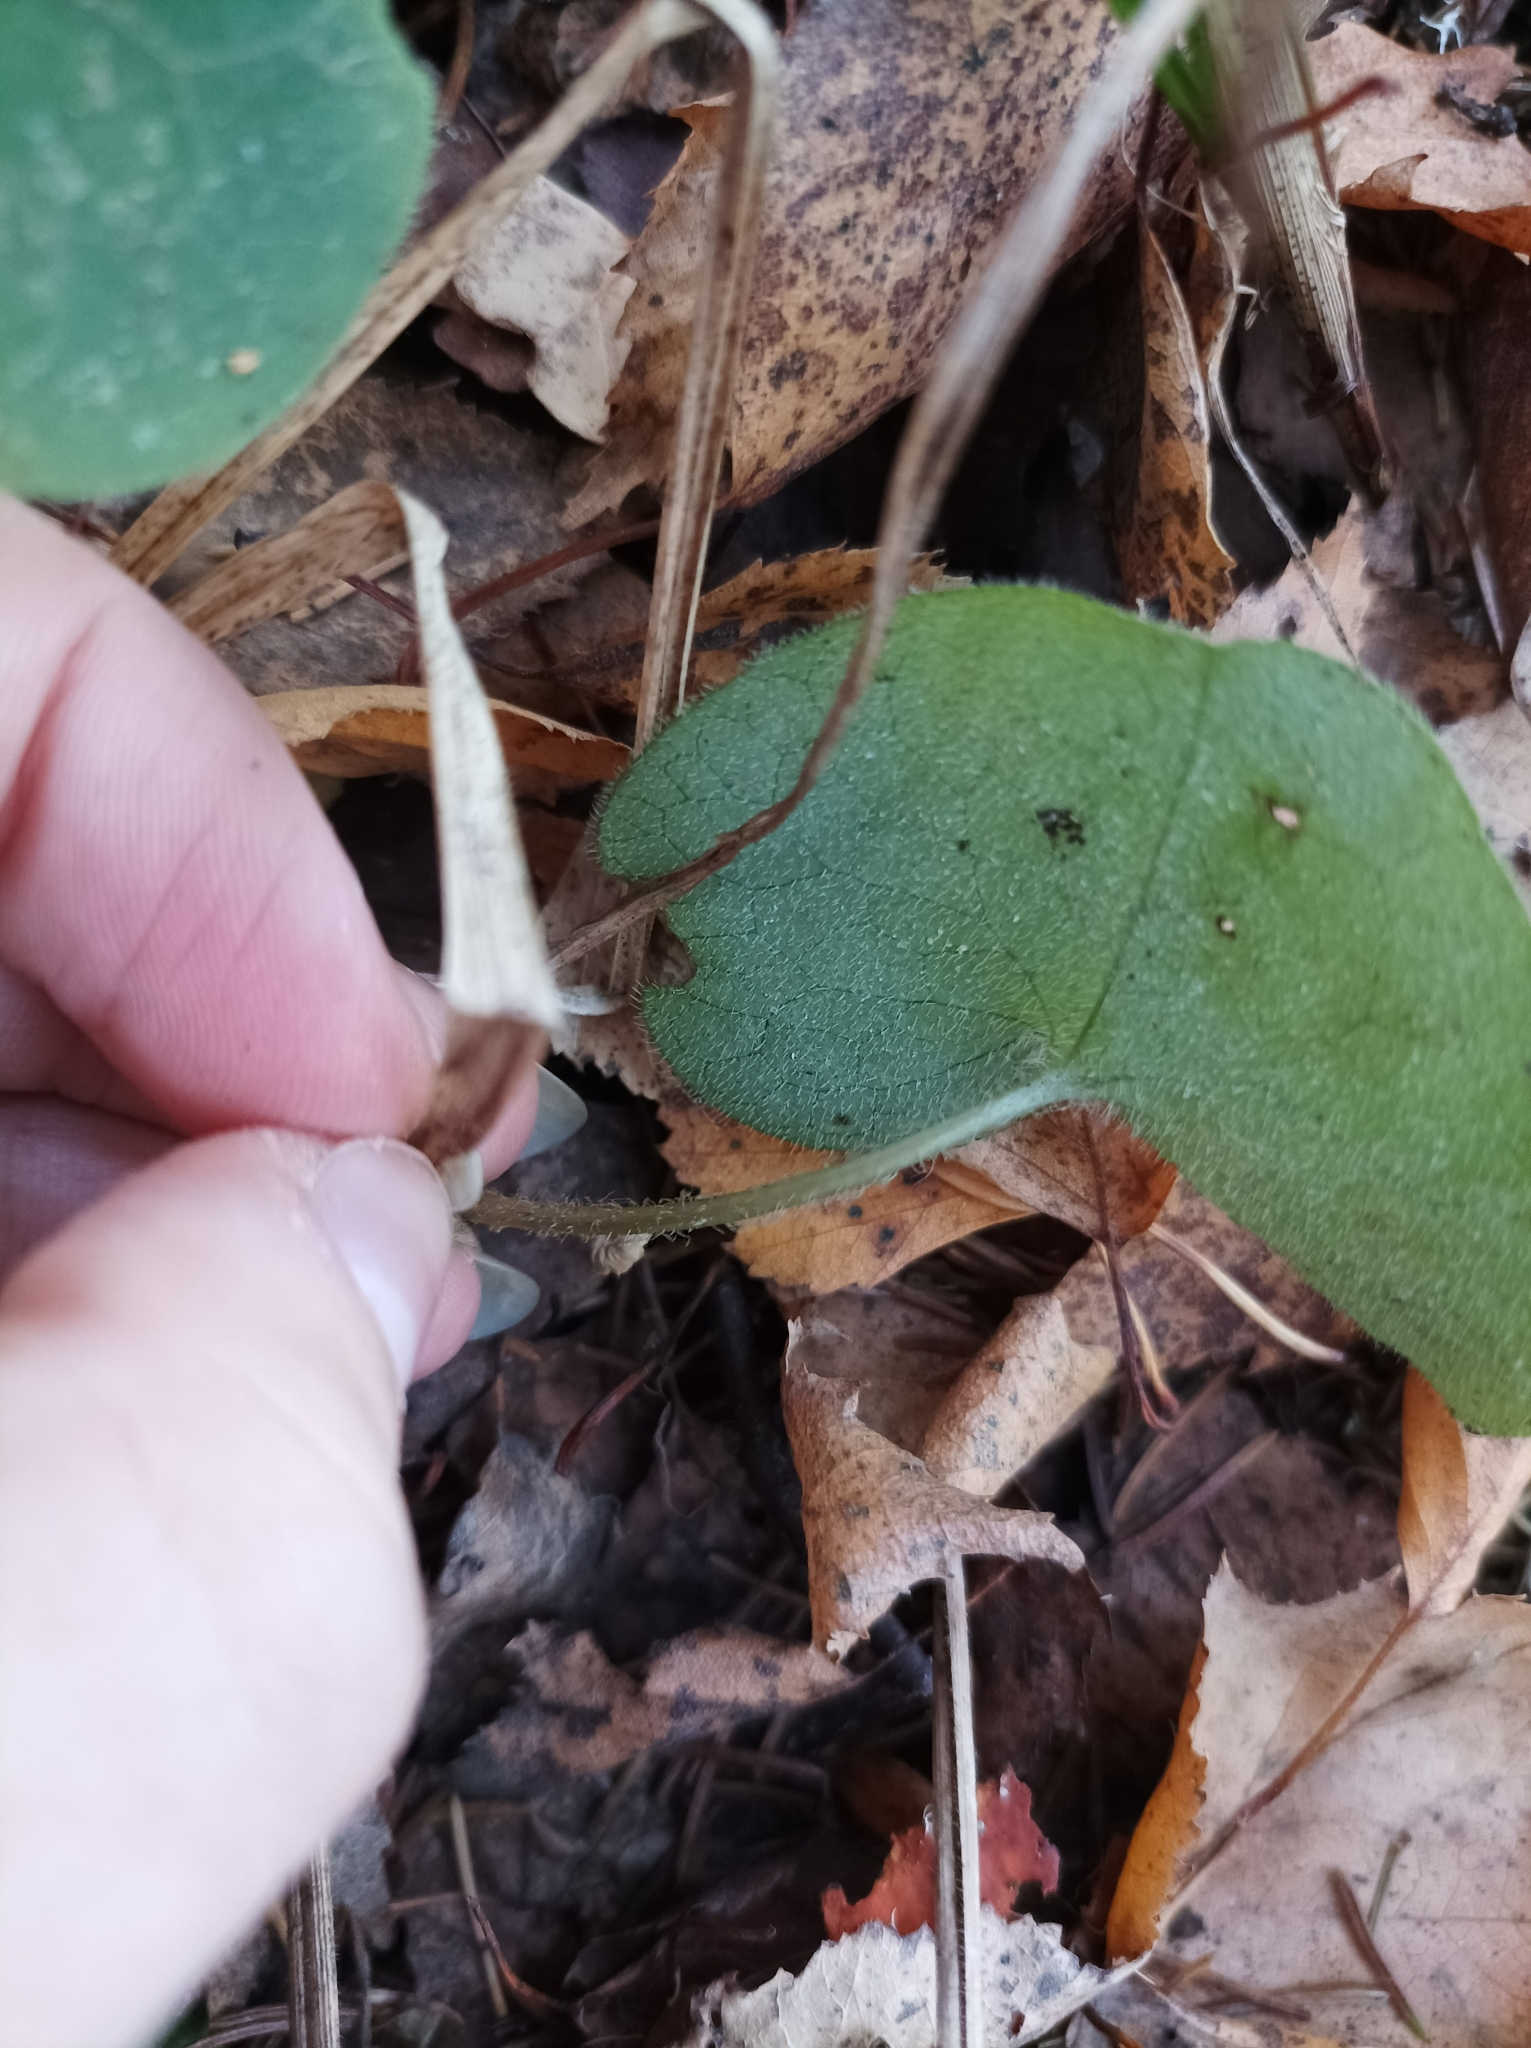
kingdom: Plantae
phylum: Tracheophyta
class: Magnoliopsida
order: Piperales
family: Aristolochiaceae
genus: Asarum
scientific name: Asarum europaeum
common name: Asarabacca
